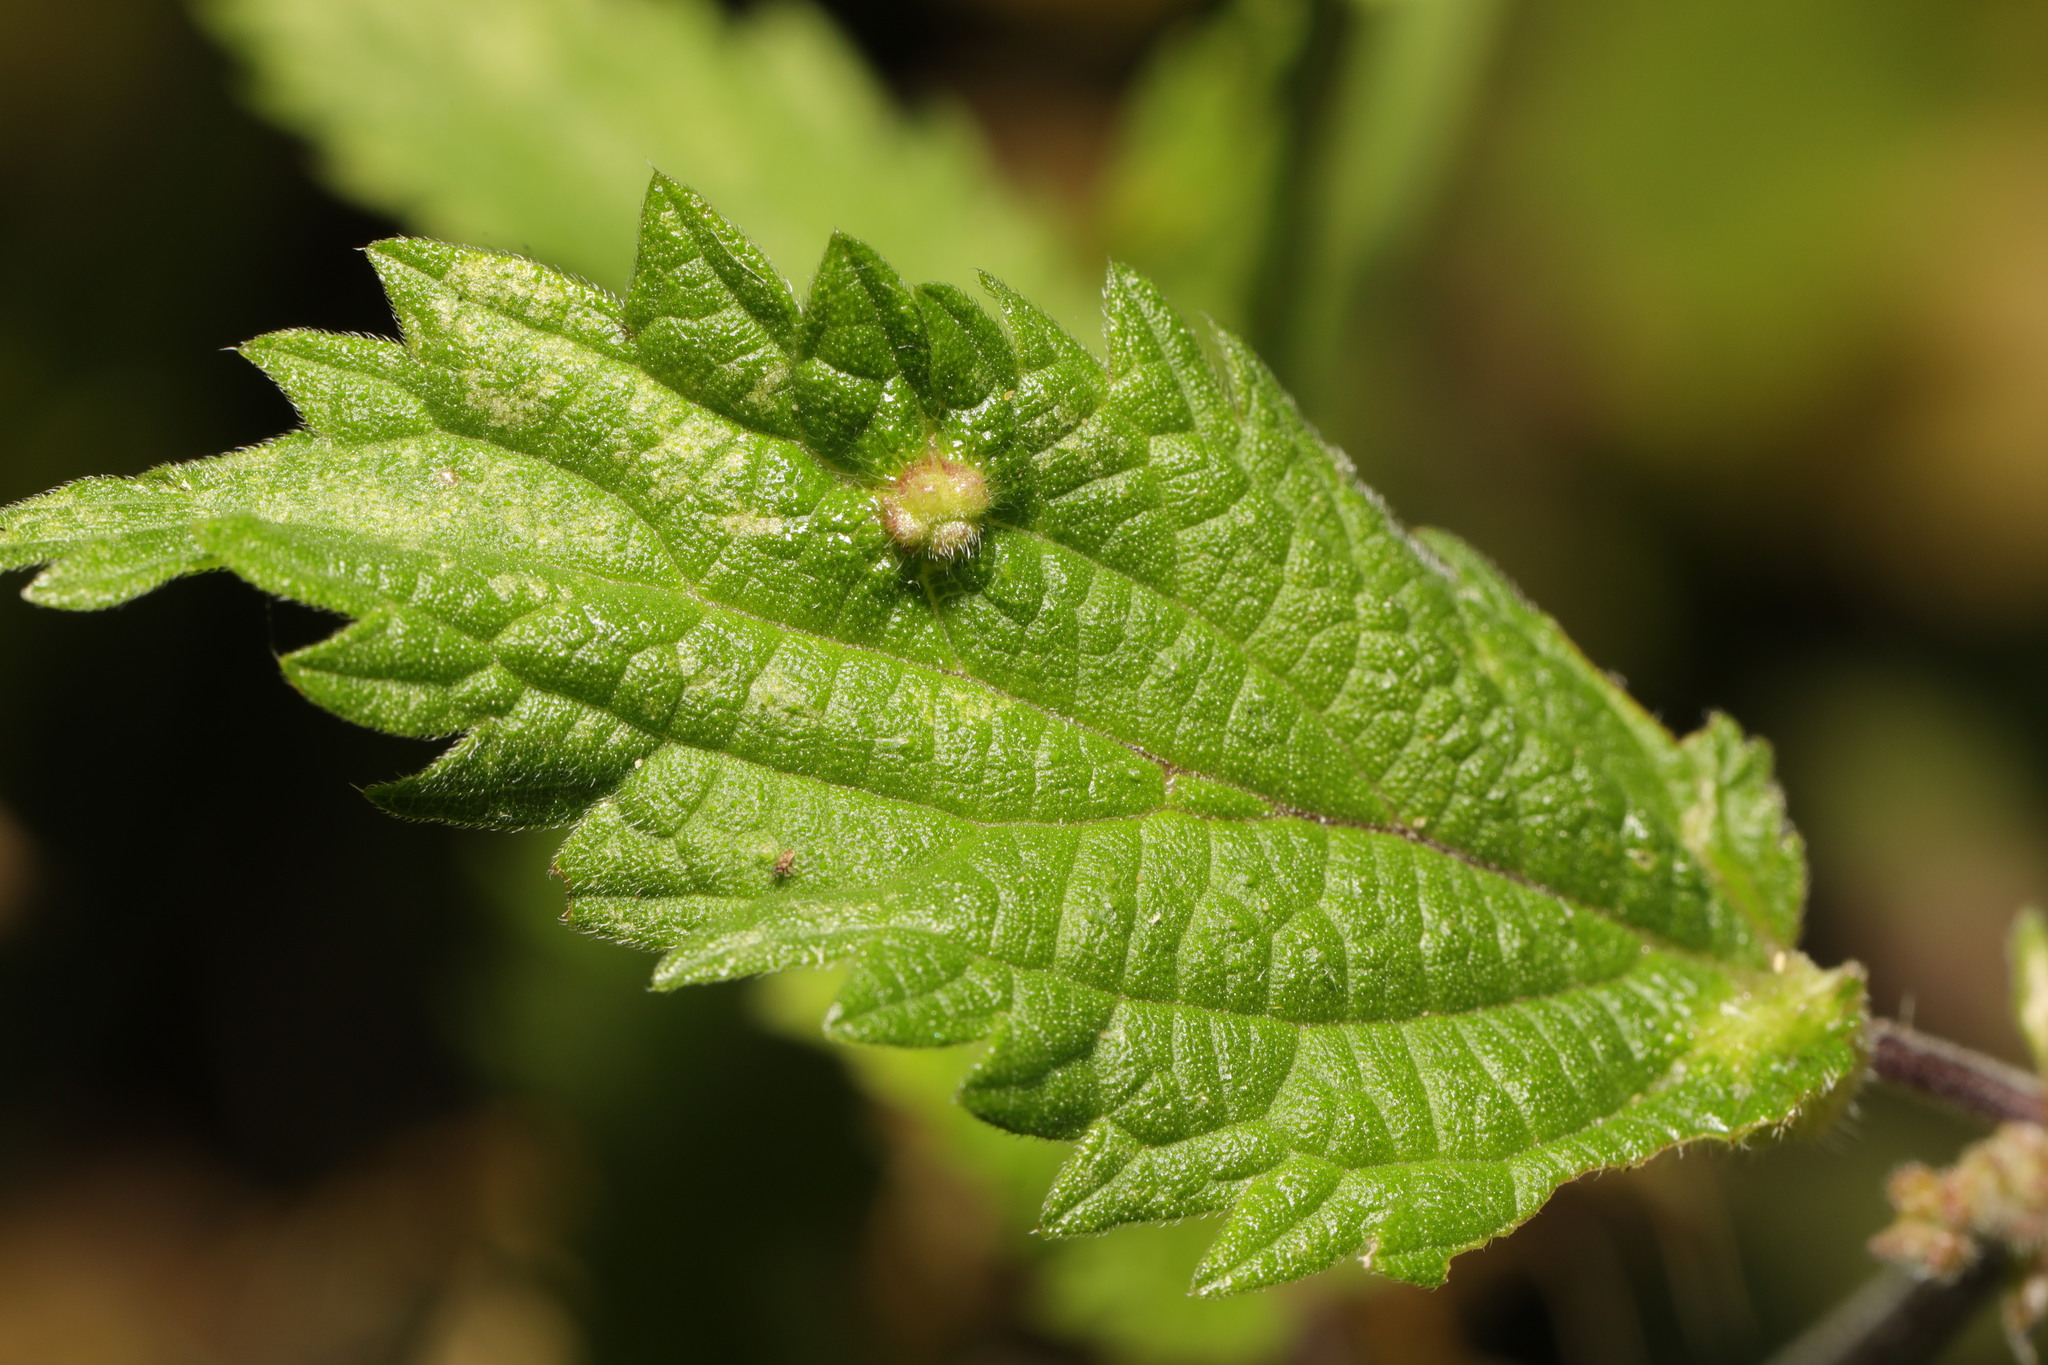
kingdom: Animalia
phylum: Arthropoda
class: Insecta
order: Diptera
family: Cecidomyiidae
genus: Dasineura
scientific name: Dasineura urticae
